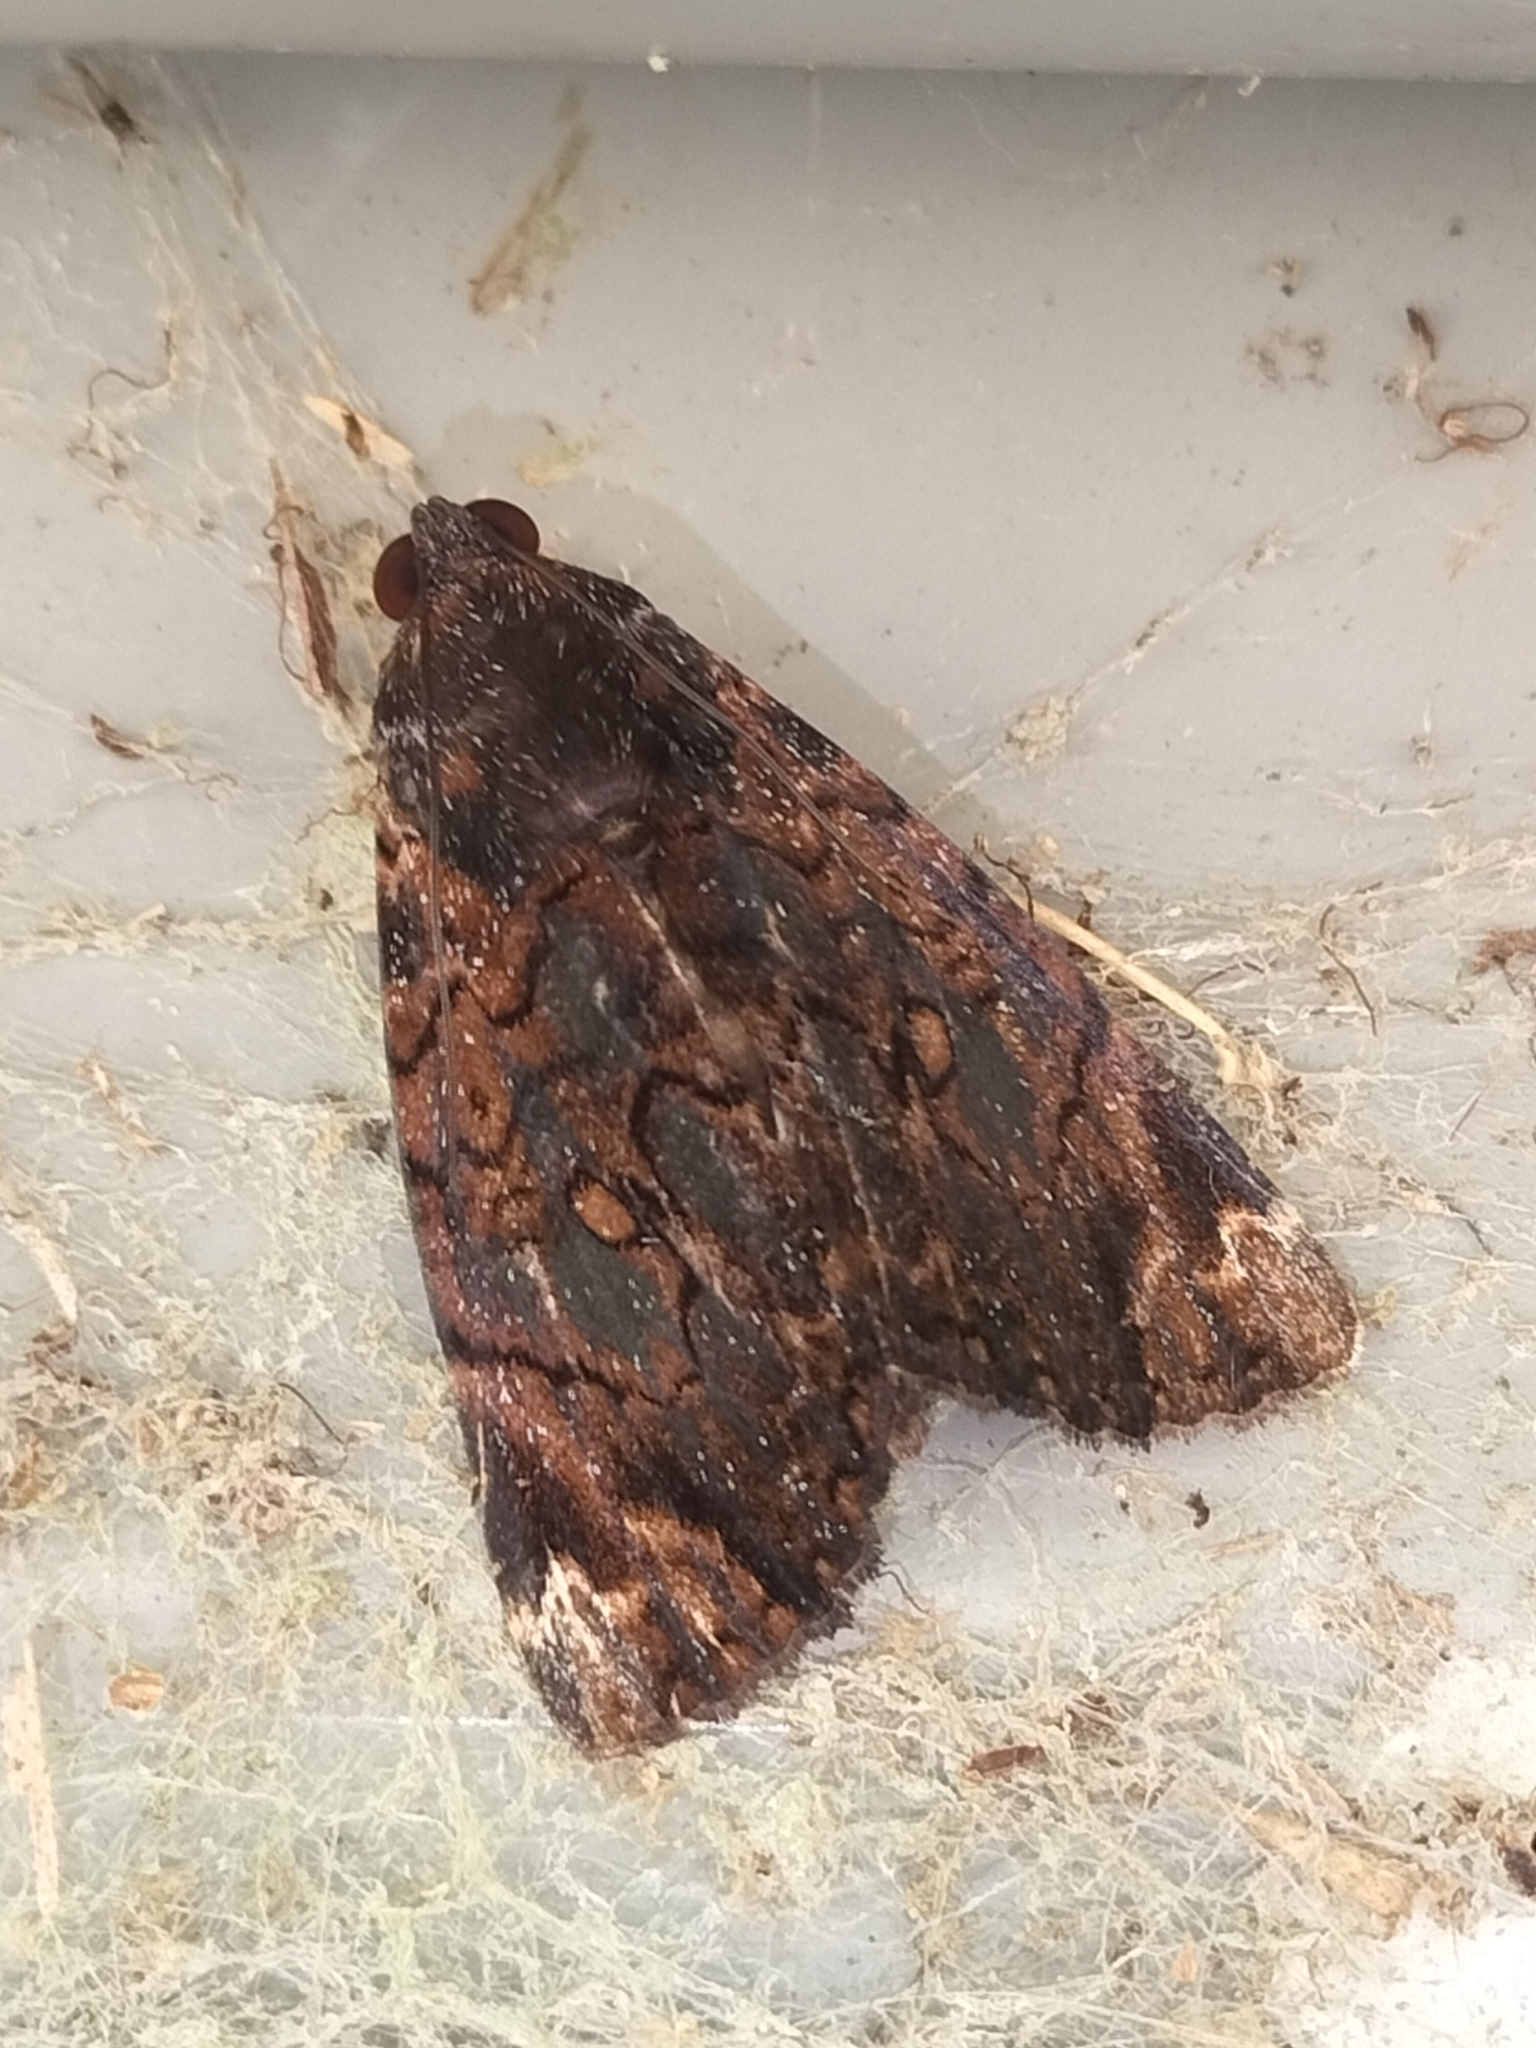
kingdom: Animalia
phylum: Arthropoda
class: Insecta
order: Lepidoptera
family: Erebidae
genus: Catephia
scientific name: Catephia linteola
